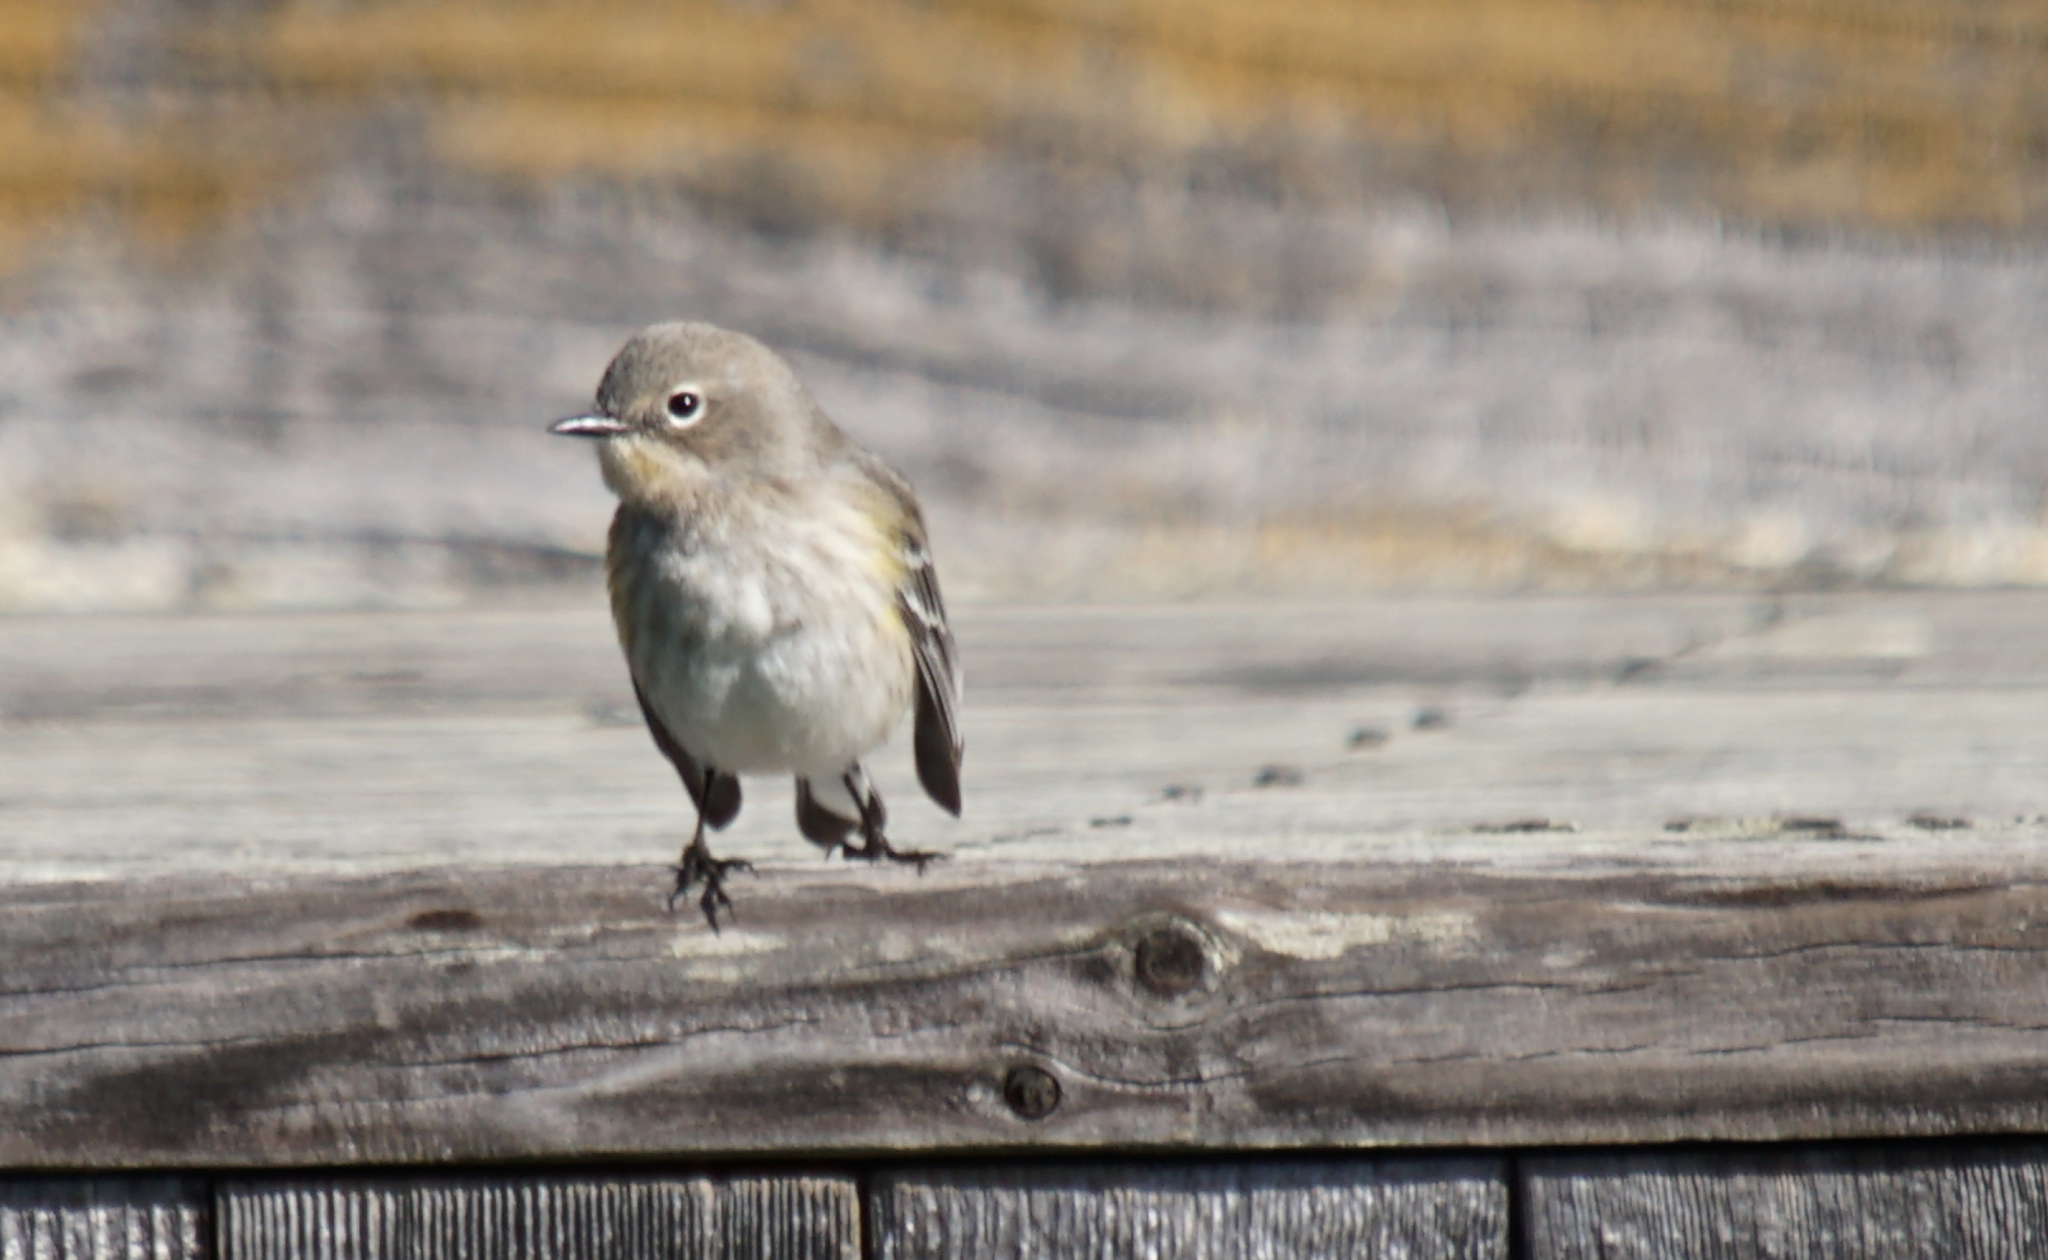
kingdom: Animalia
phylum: Chordata
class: Aves
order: Passeriformes
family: Parulidae
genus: Setophaga
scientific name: Setophaga coronata
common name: Myrtle warbler
